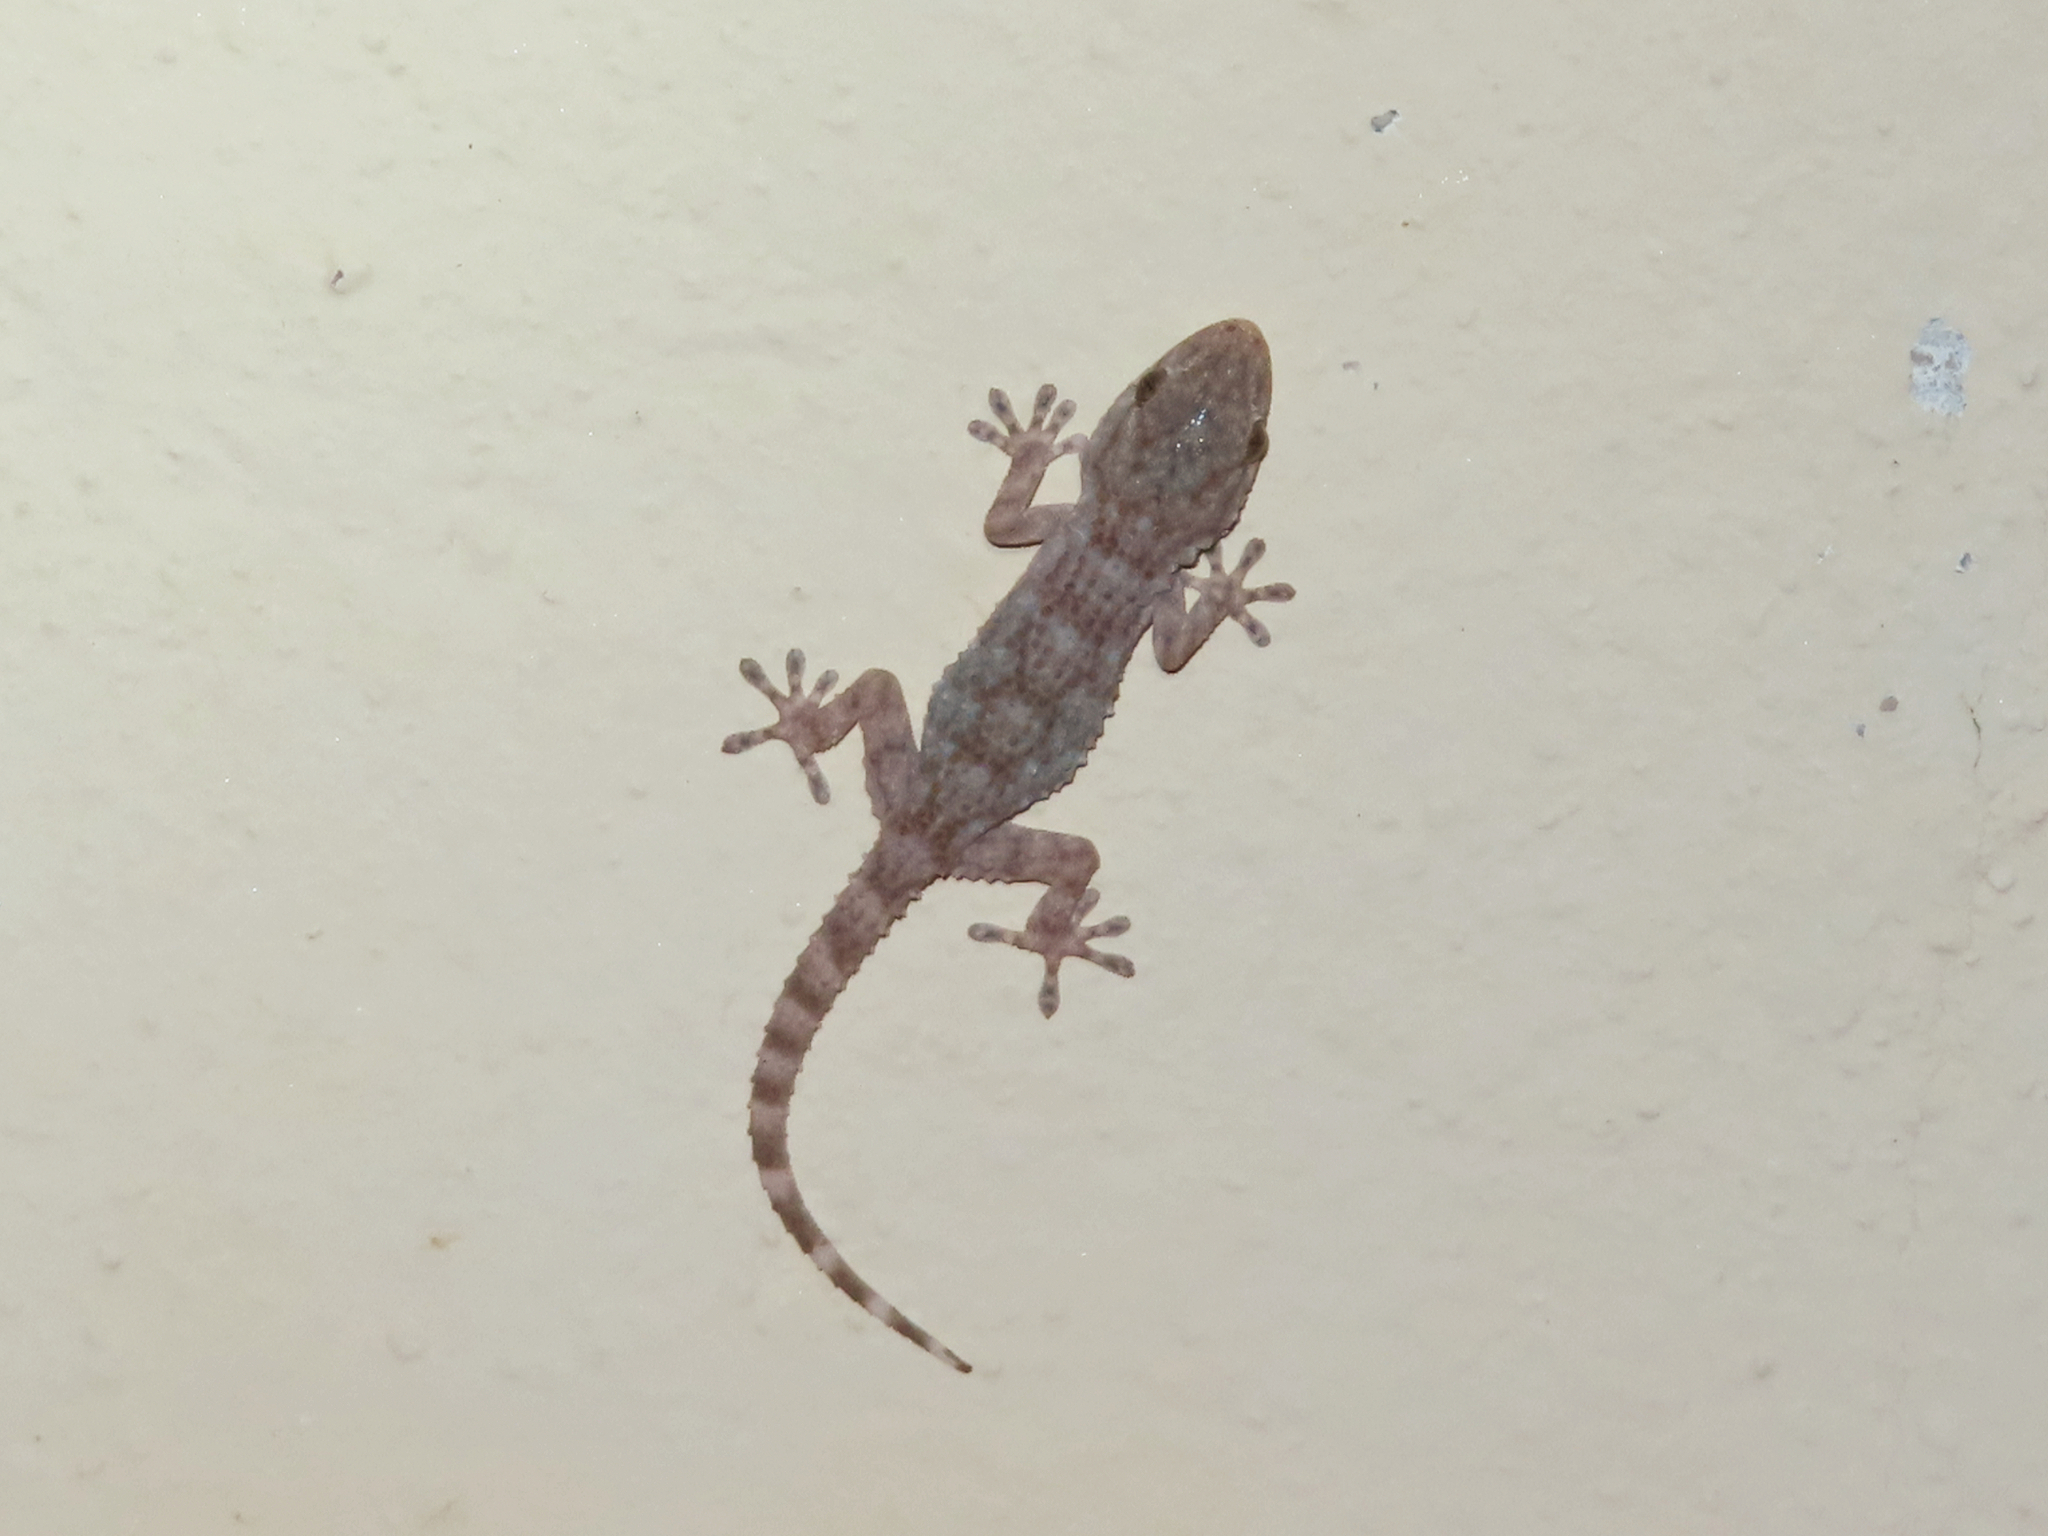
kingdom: Animalia
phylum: Chordata
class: Squamata
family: Phyllodactylidae
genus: Tarentola
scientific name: Tarentola mauritanica
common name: Moorish gecko
